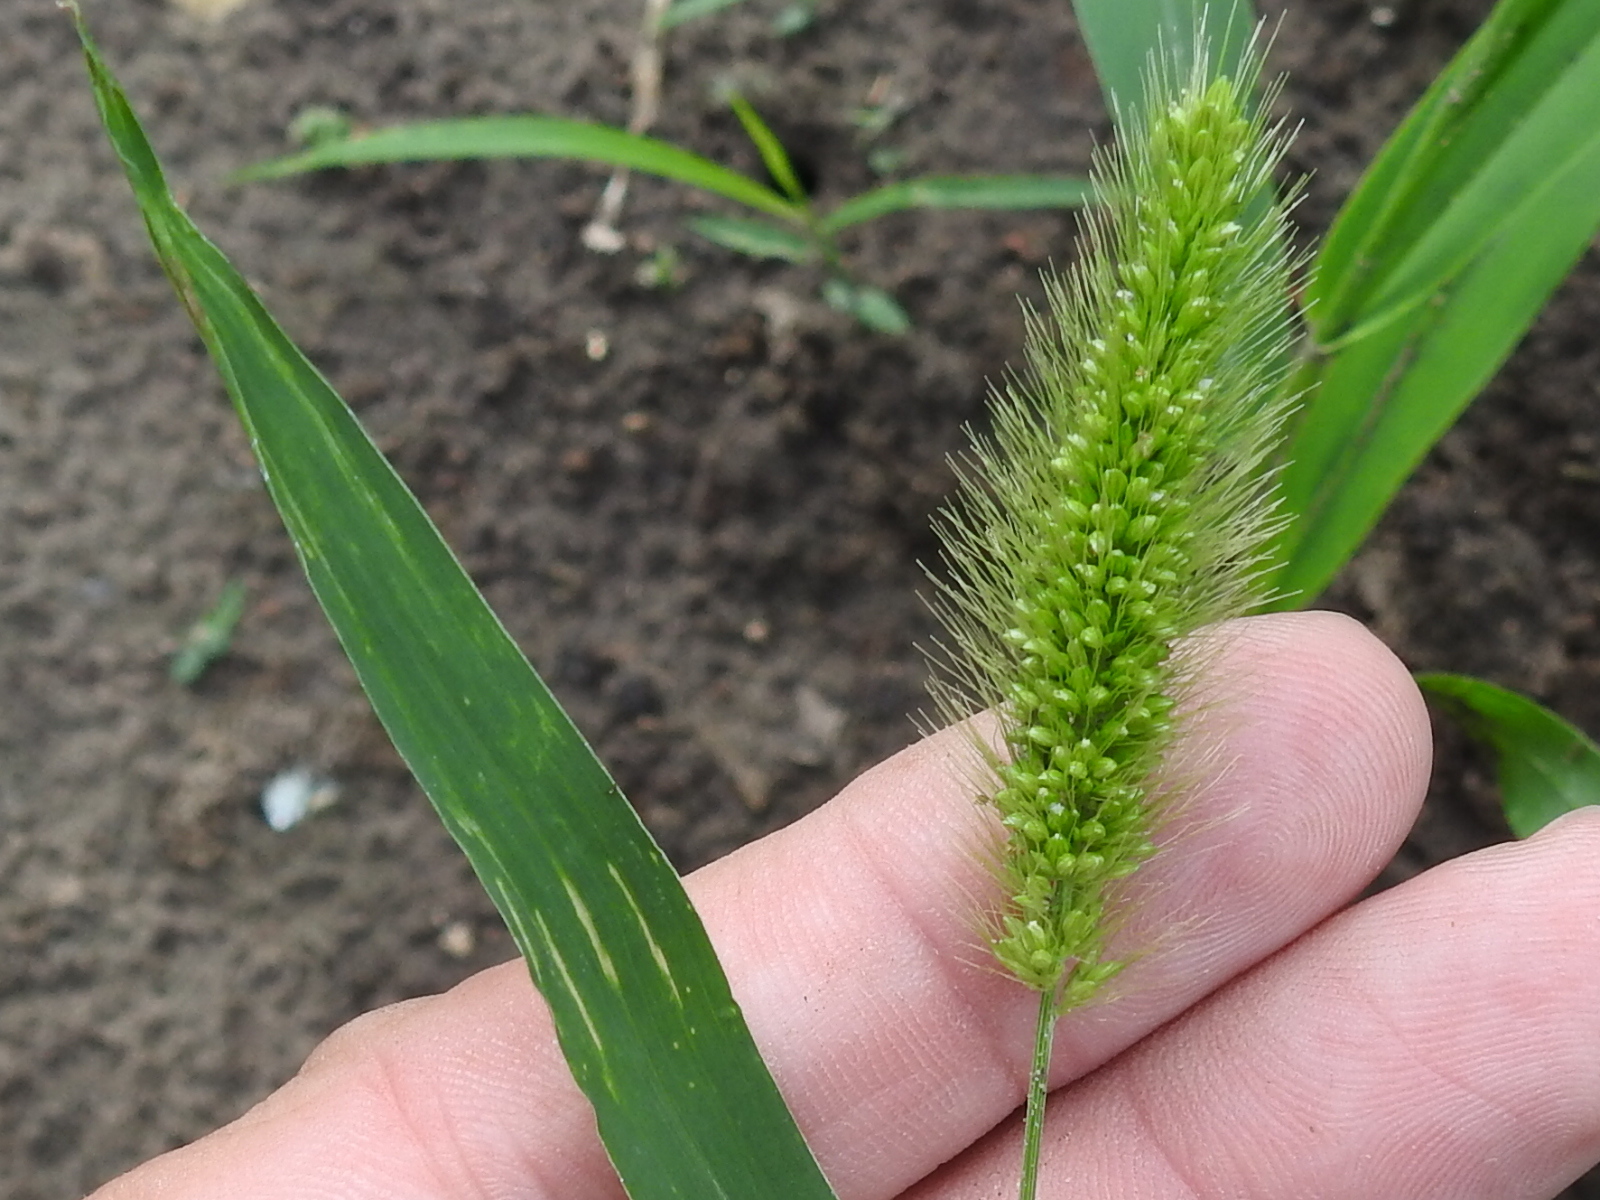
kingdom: Plantae
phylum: Tracheophyta
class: Liliopsida
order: Poales
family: Poaceae
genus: Setaria
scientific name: Setaria viridis
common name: Green bristlegrass
